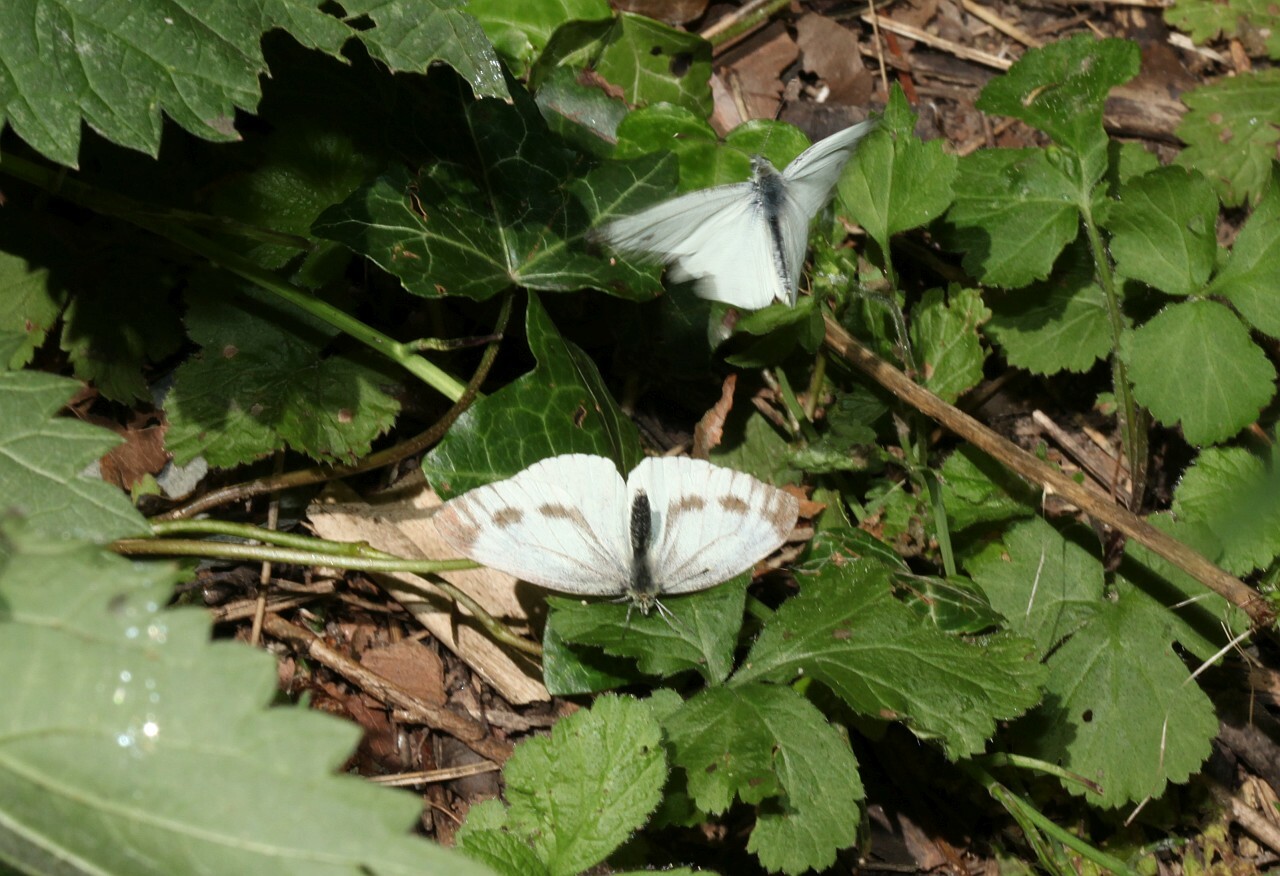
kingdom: Animalia
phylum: Arthropoda
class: Insecta
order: Lepidoptera
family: Pieridae
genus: Pieris
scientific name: Pieris napi
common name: Green-veined white
